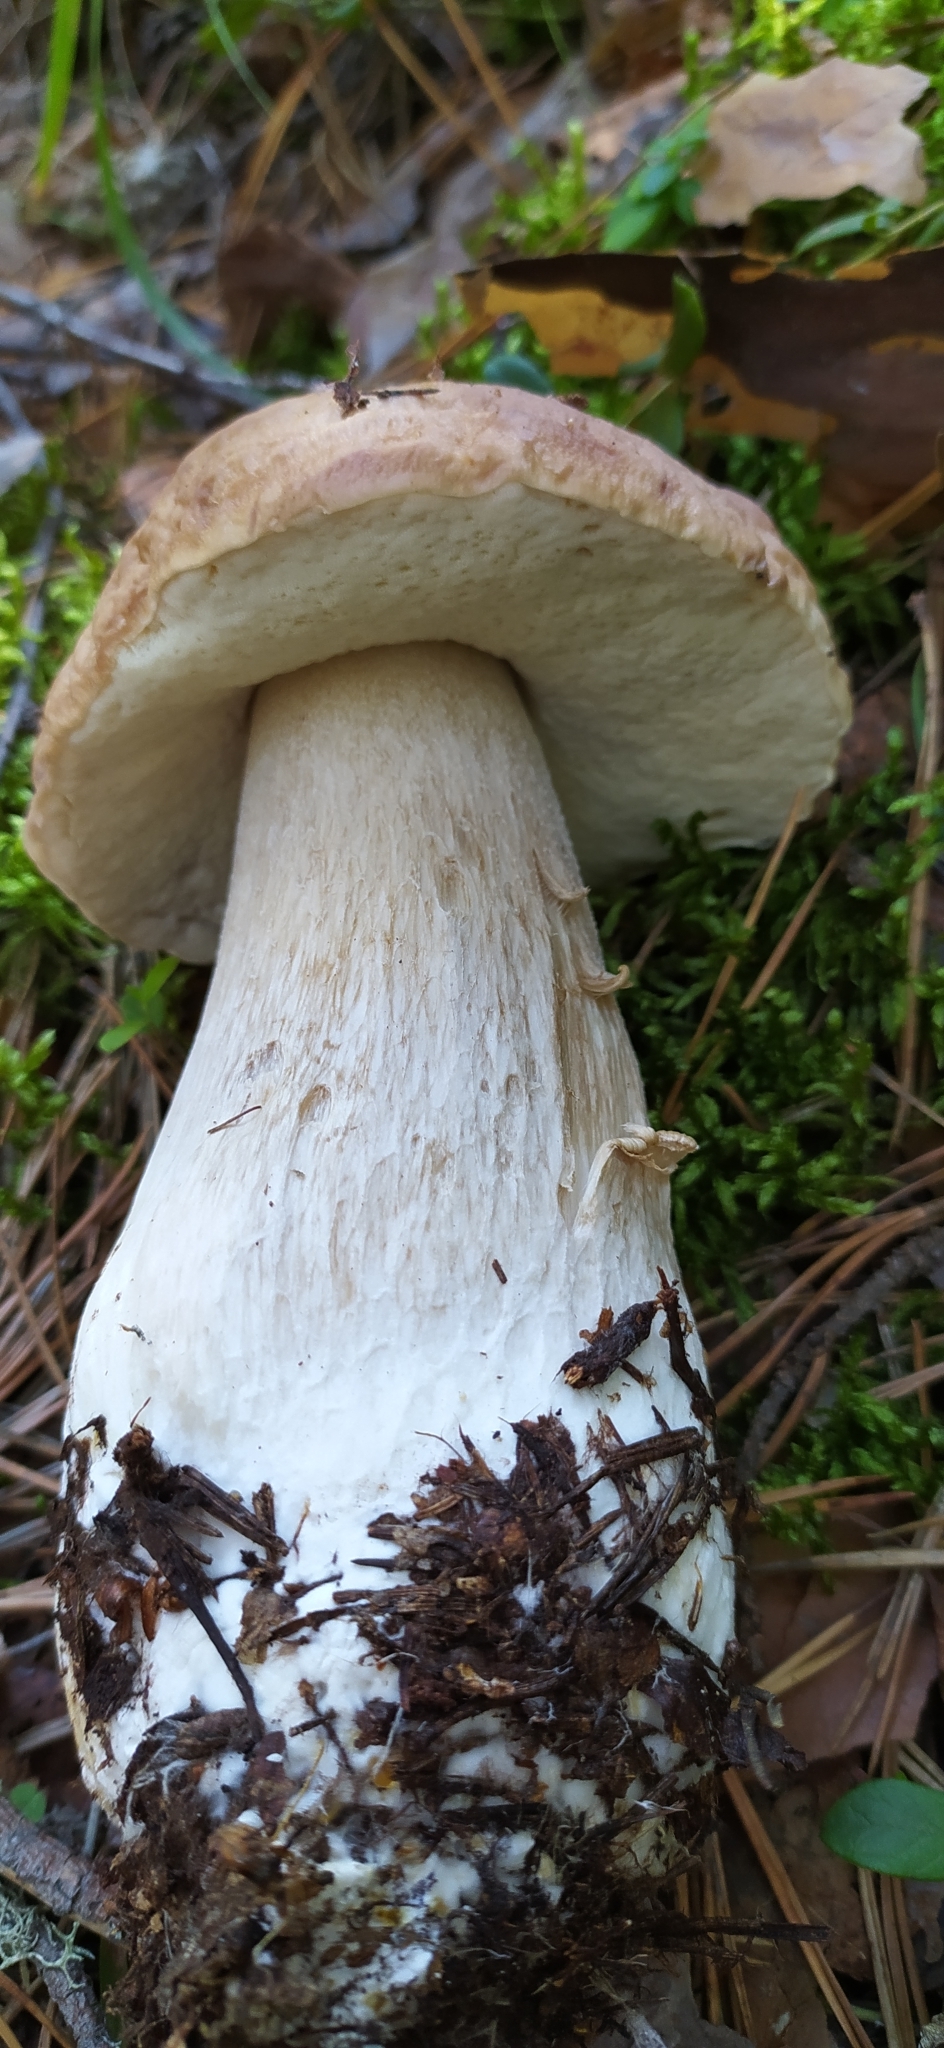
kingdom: Fungi
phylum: Basidiomycota
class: Agaricomycetes
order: Boletales
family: Boletaceae
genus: Boletus
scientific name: Boletus edulis
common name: Cep
